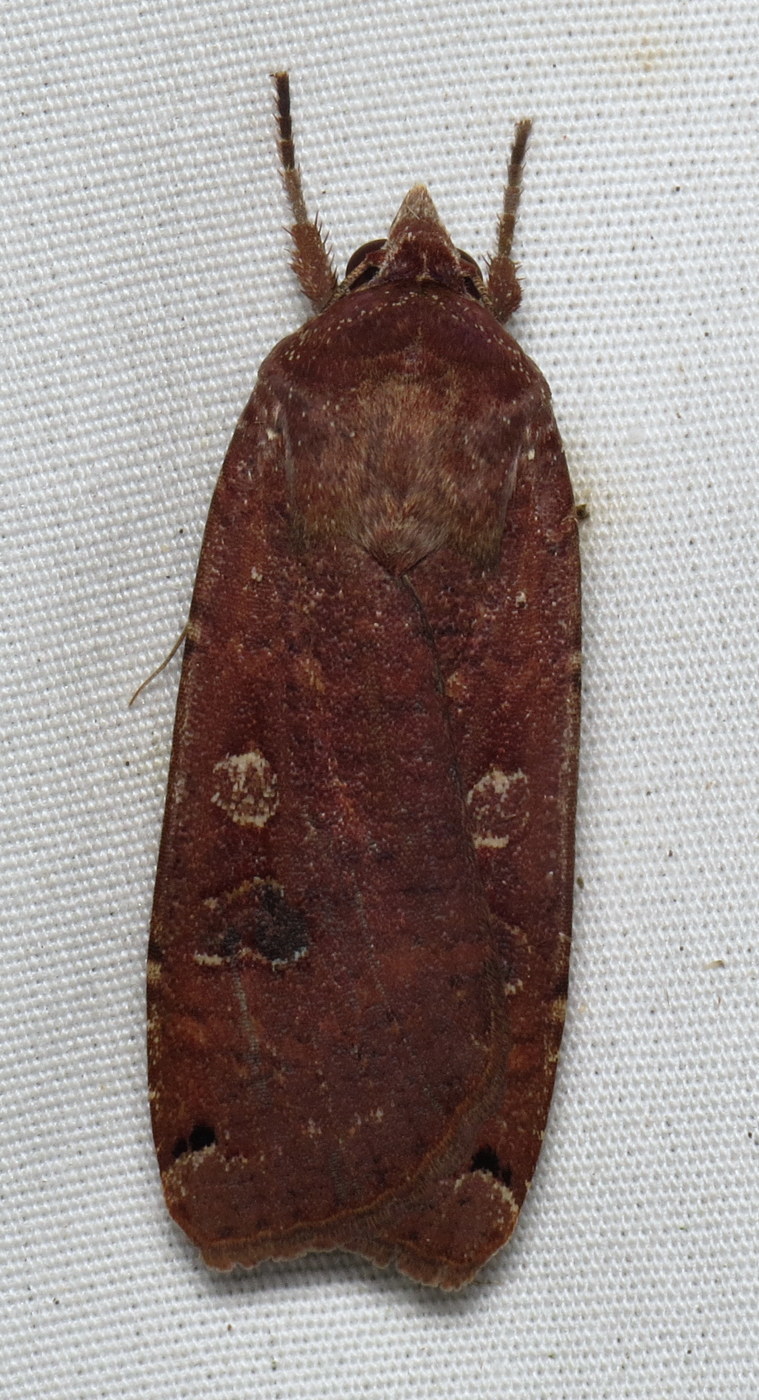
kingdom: Animalia
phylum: Arthropoda
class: Insecta
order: Lepidoptera
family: Noctuidae
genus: Noctua
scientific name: Noctua pronuba
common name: Large yellow underwing
